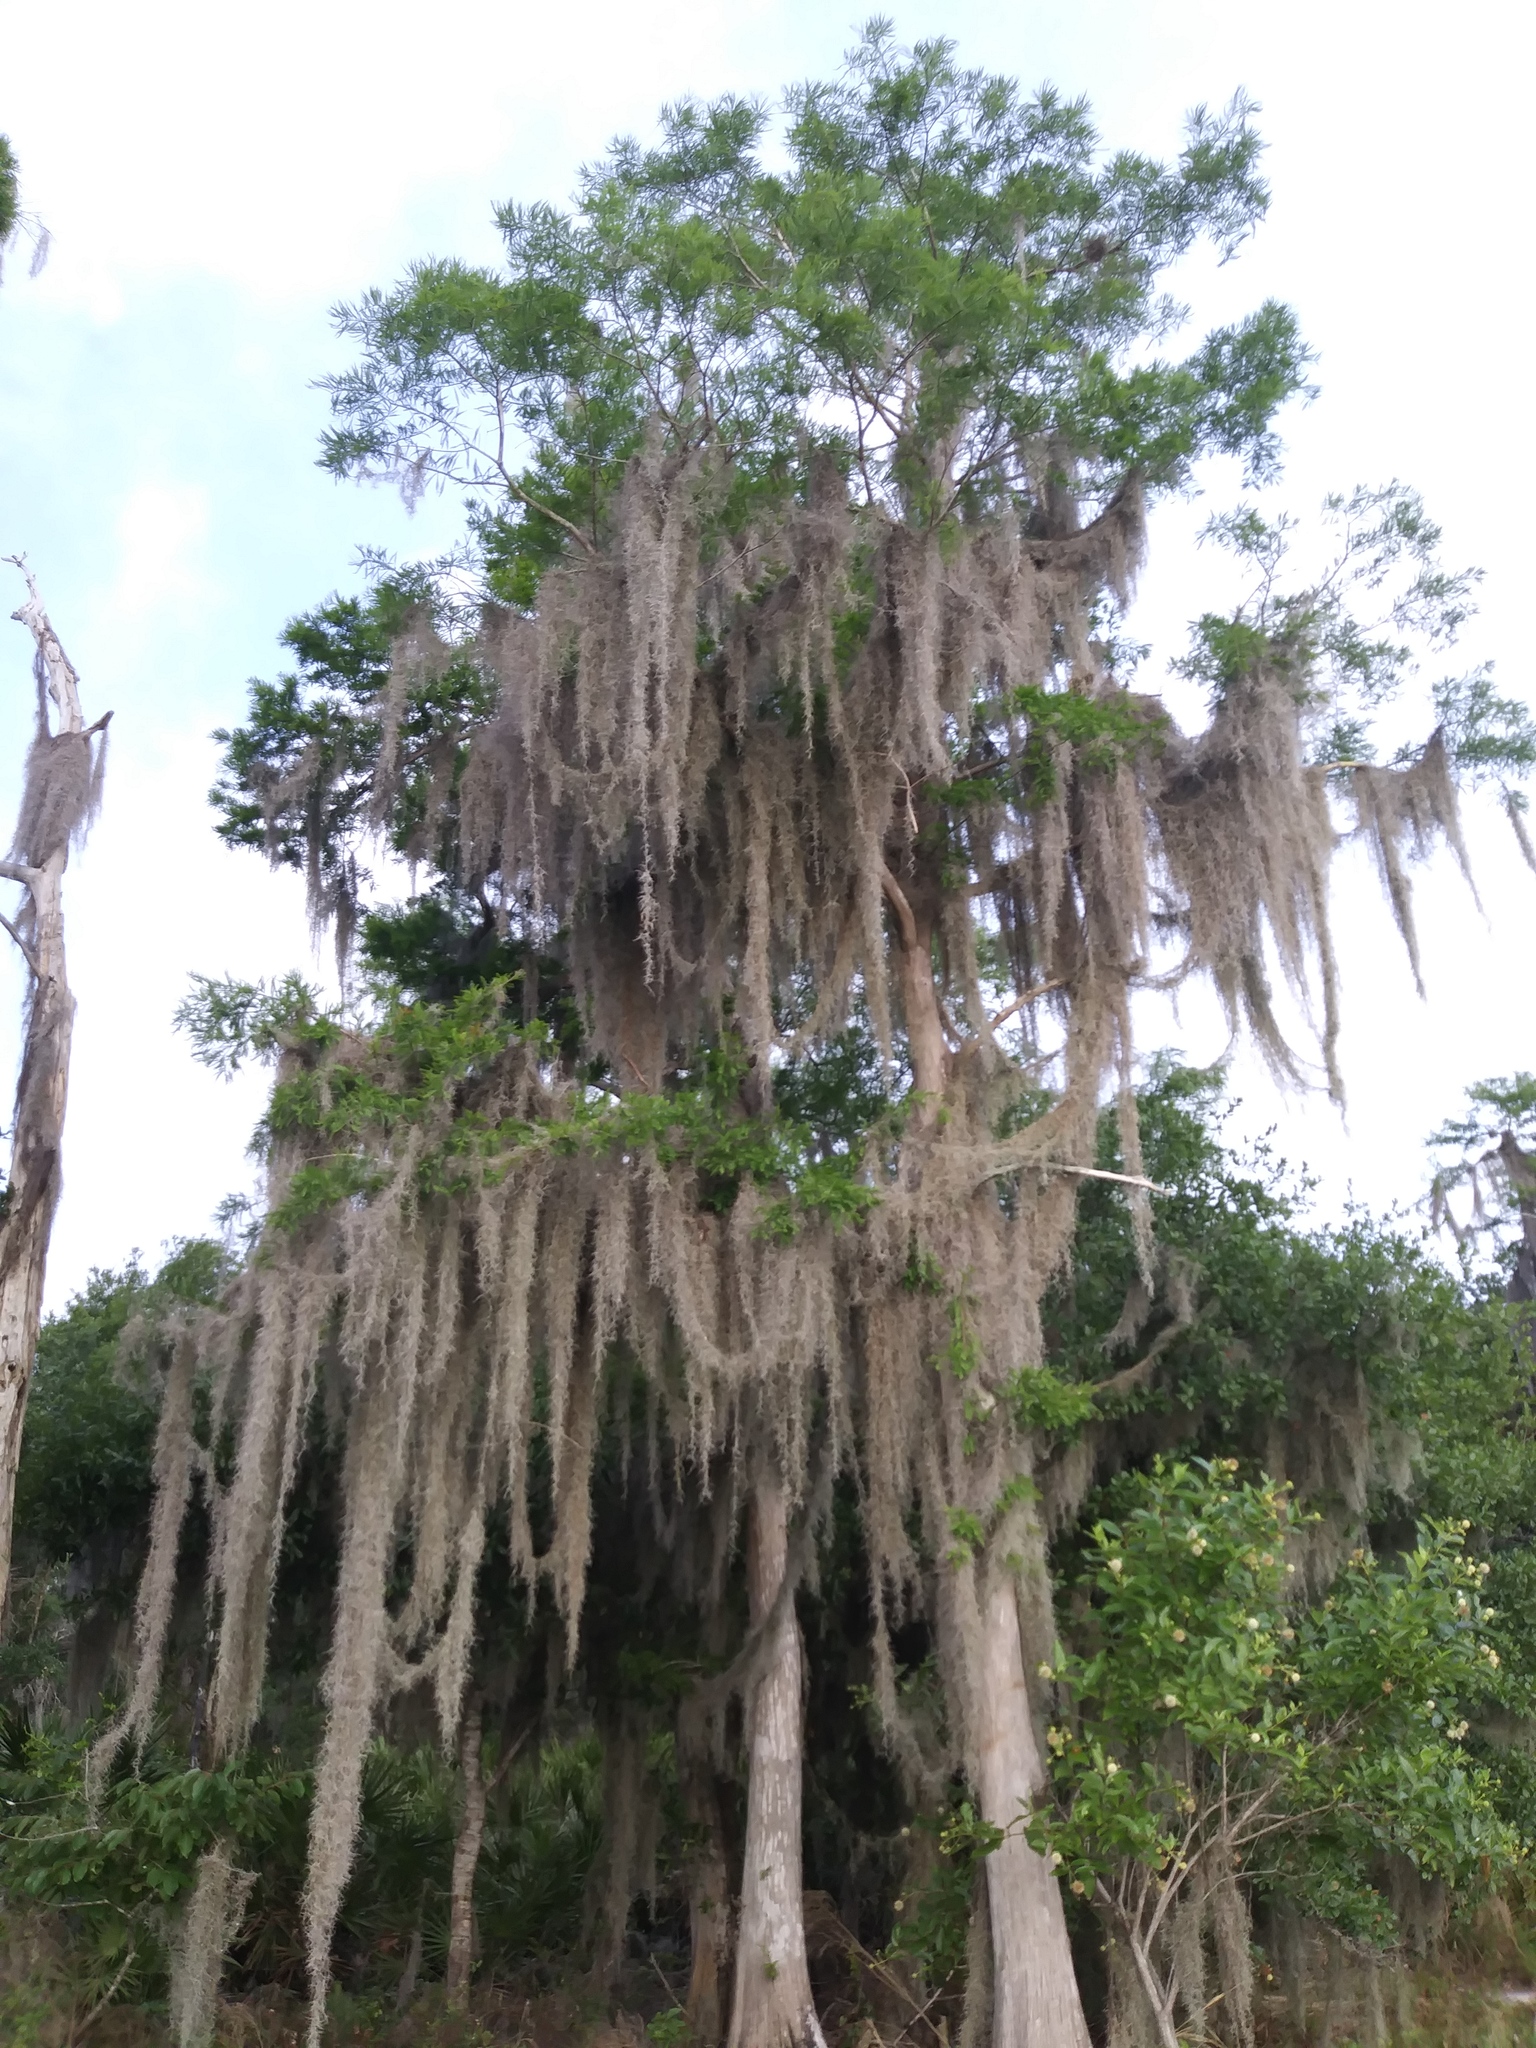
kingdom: Plantae
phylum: Tracheophyta
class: Liliopsida
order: Poales
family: Bromeliaceae
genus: Tillandsia
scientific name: Tillandsia usneoides
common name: Spanish moss
